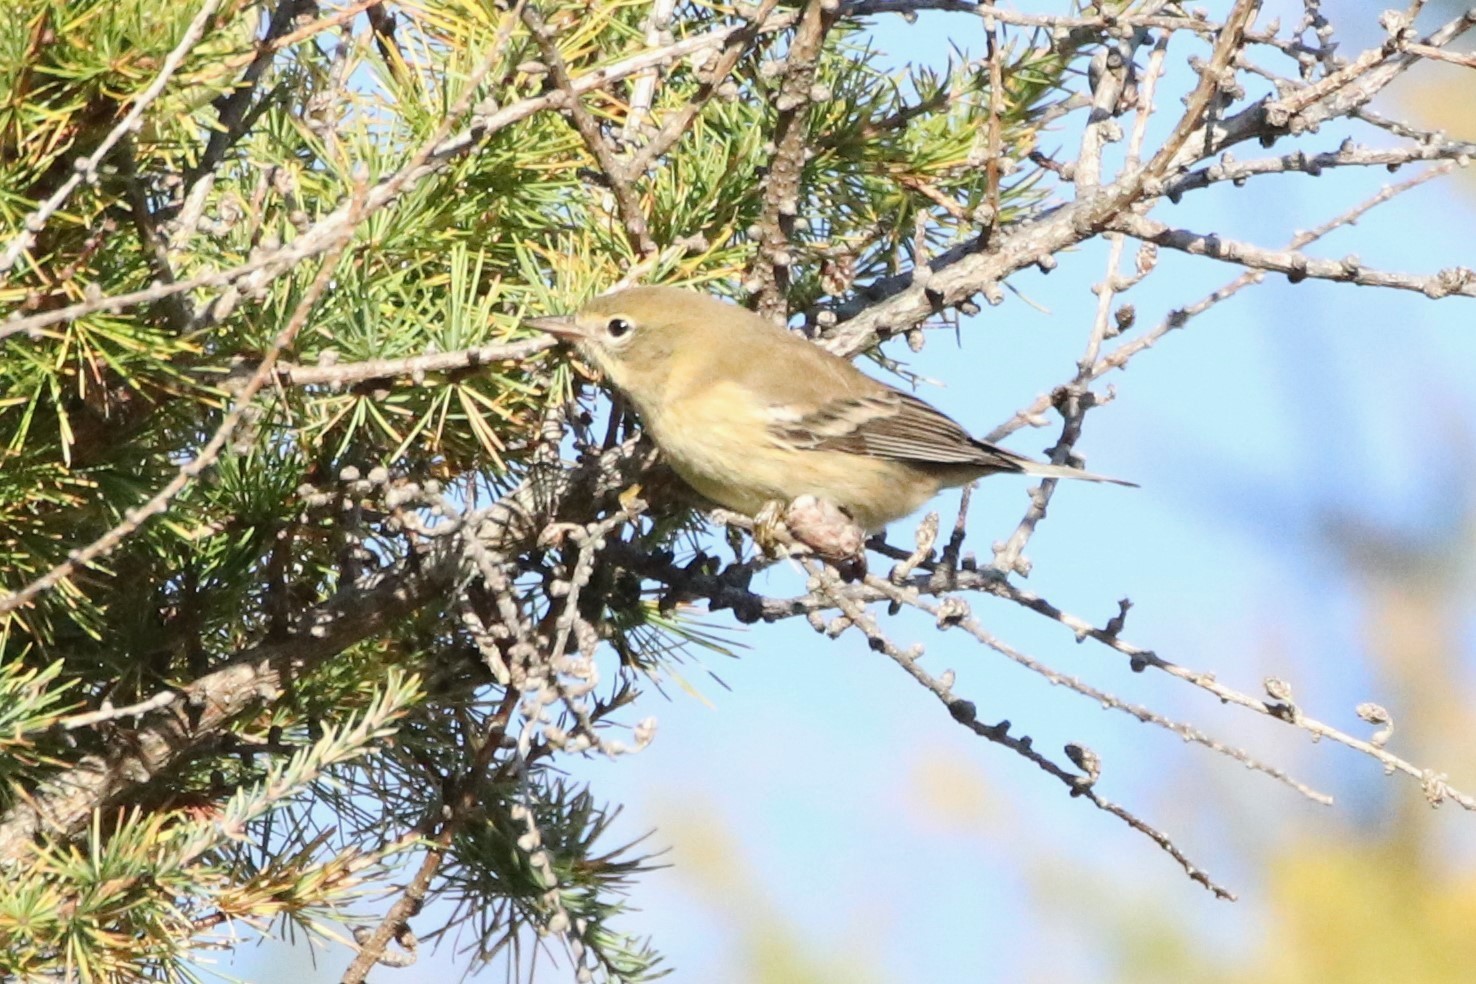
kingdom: Animalia
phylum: Chordata
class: Aves
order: Passeriformes
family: Parulidae
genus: Setophaga
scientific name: Setophaga pinus
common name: Pine warbler
